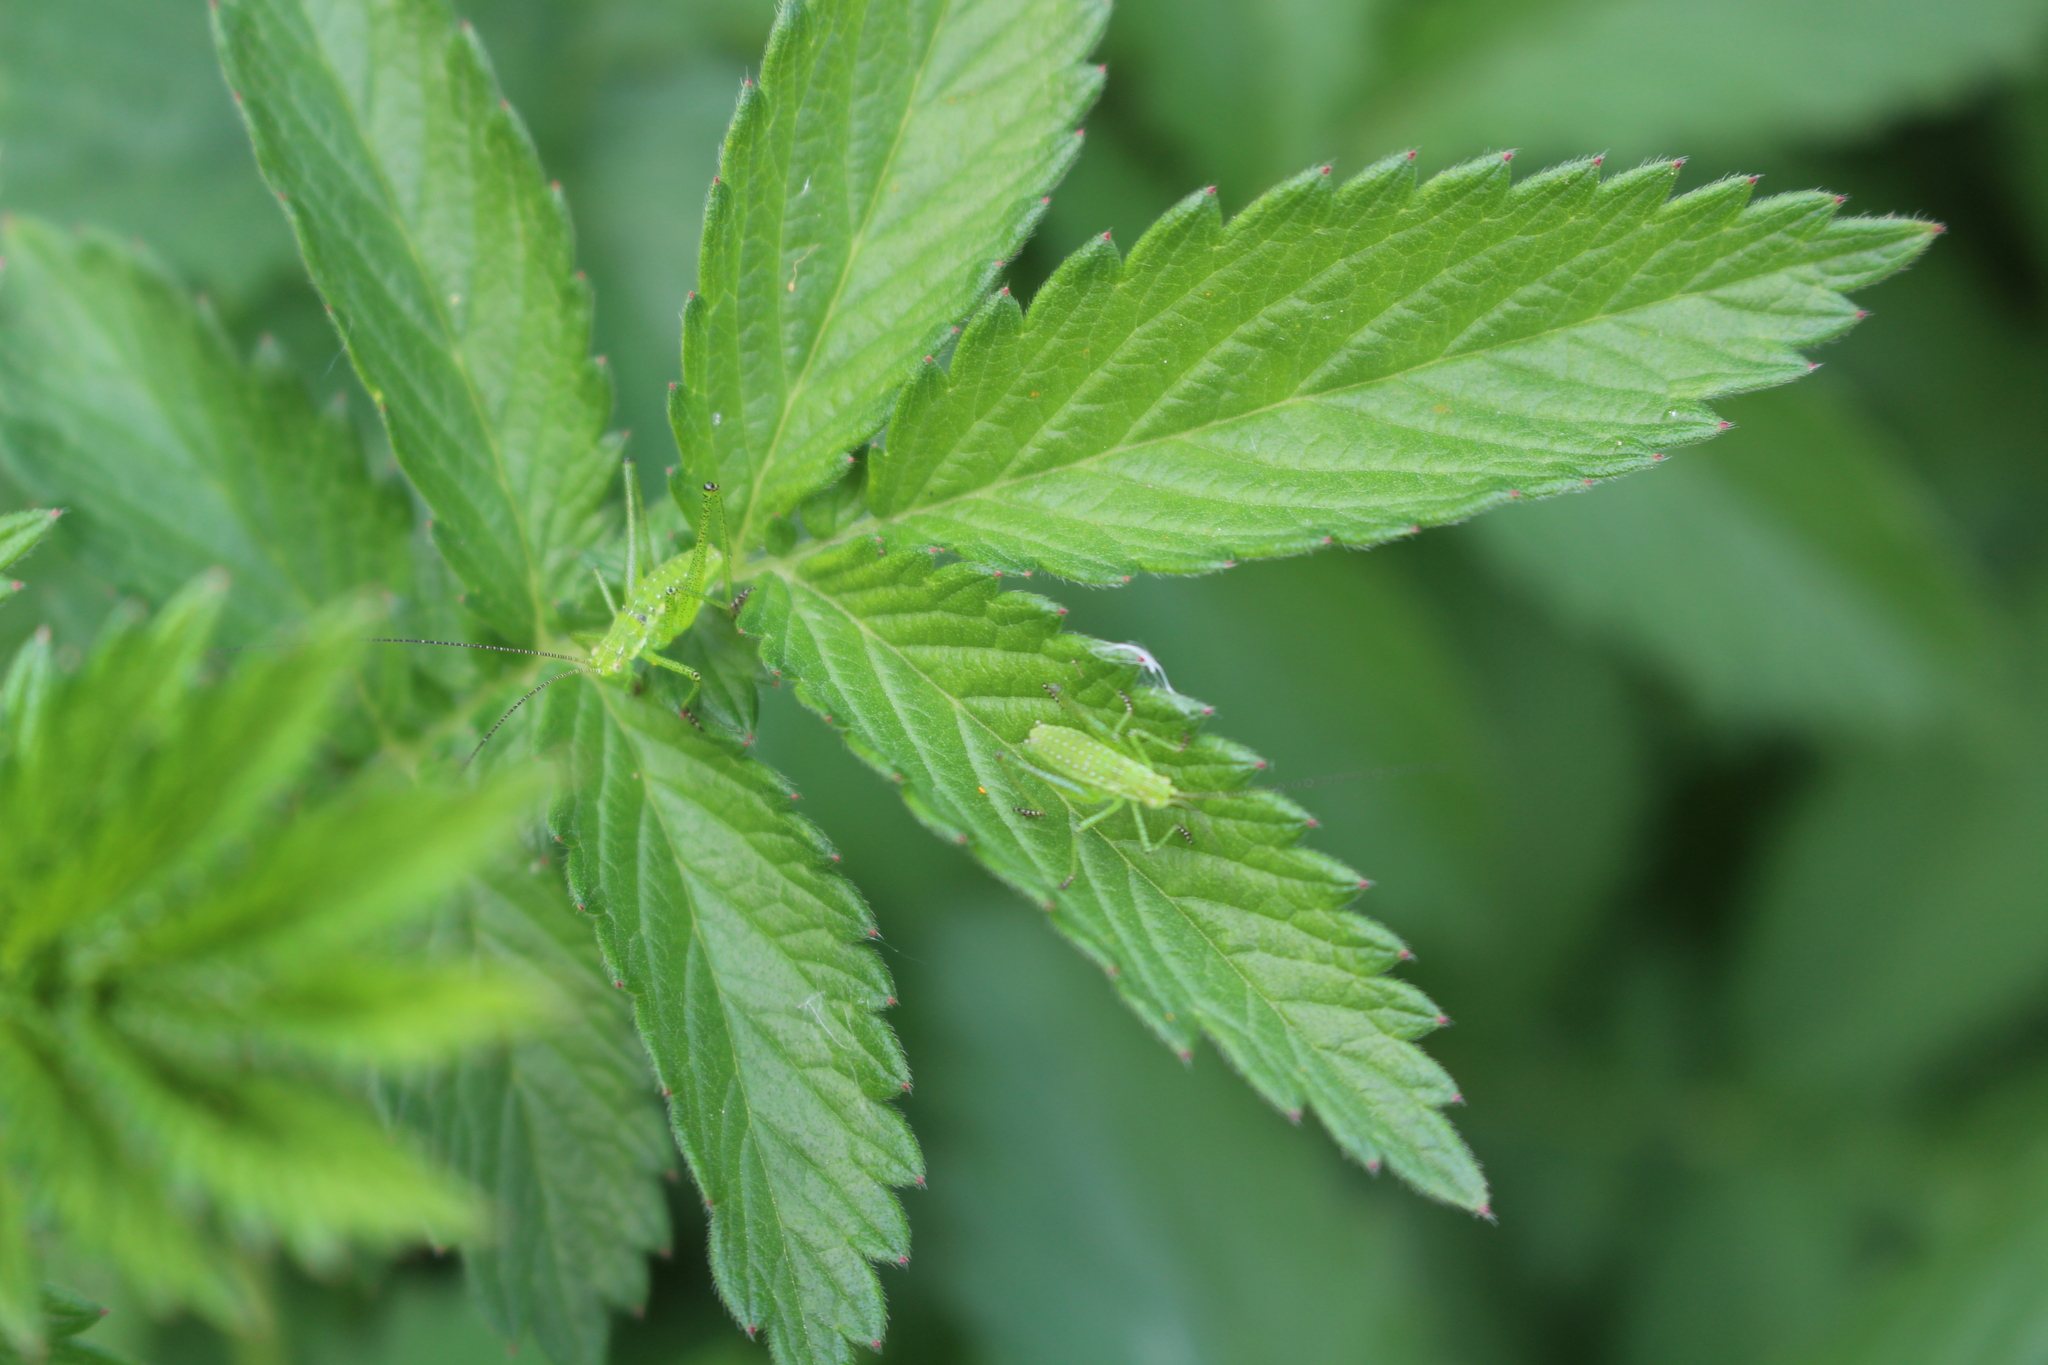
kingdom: Animalia
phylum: Arthropoda
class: Insecta
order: Orthoptera
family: Tettigoniidae
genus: Leptophyes
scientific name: Leptophyes albovittata
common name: Striped bush-cricket
